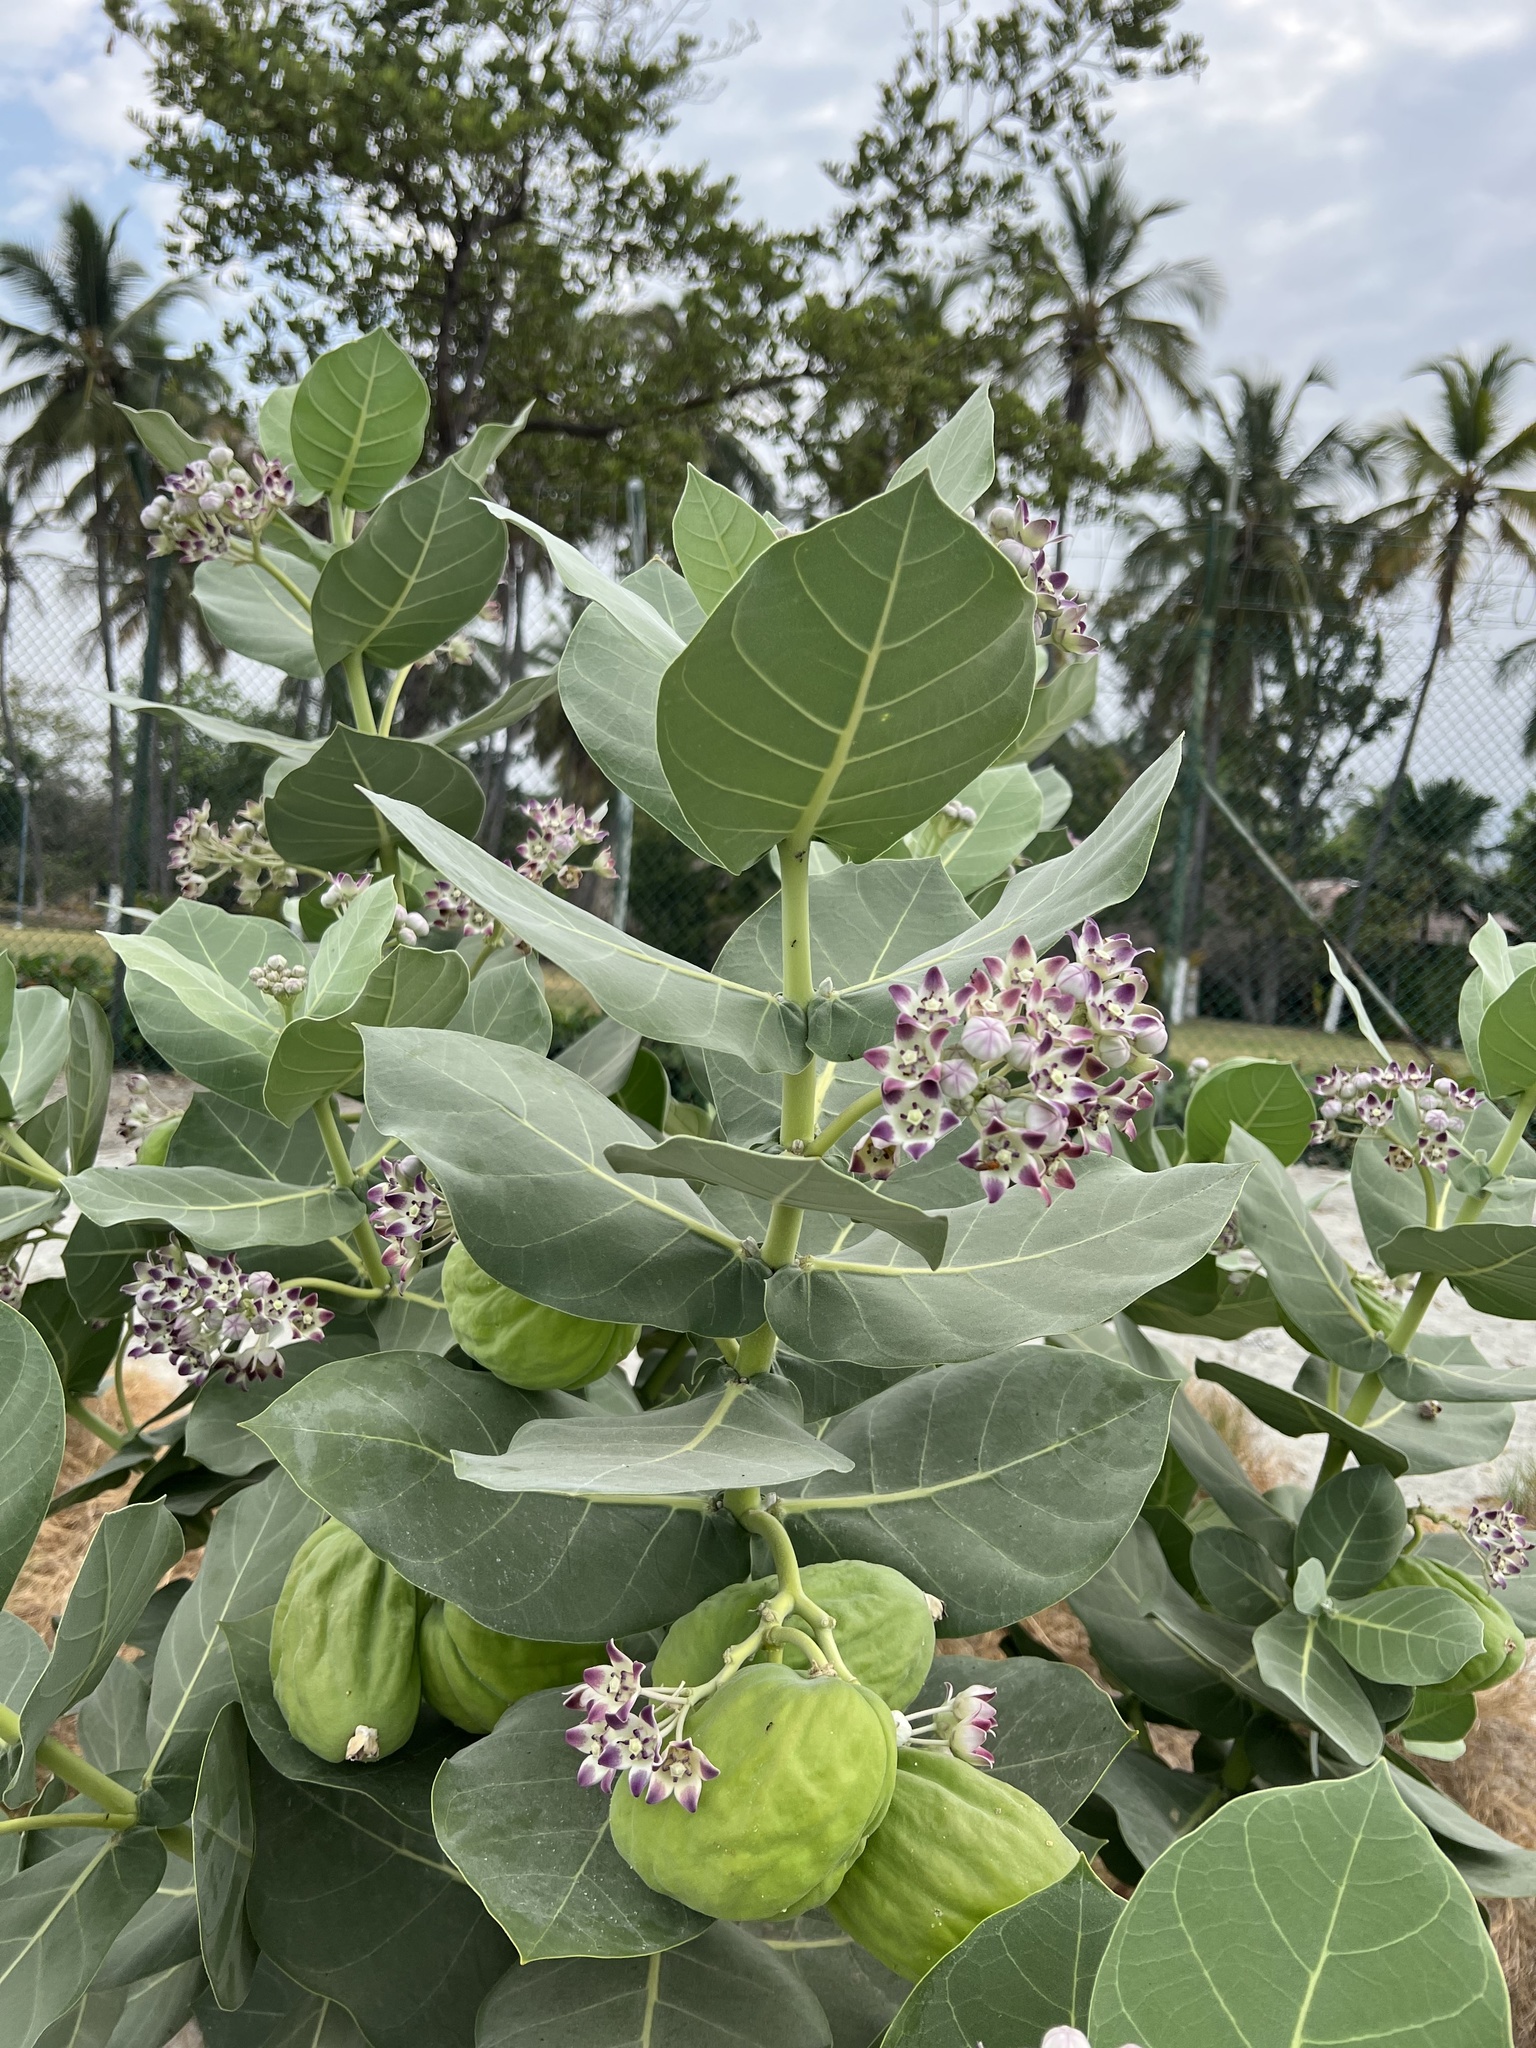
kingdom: Plantae
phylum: Tracheophyta
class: Magnoliopsida
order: Gentianales
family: Apocynaceae
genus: Calotropis
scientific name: Calotropis procera
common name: Roostertree
